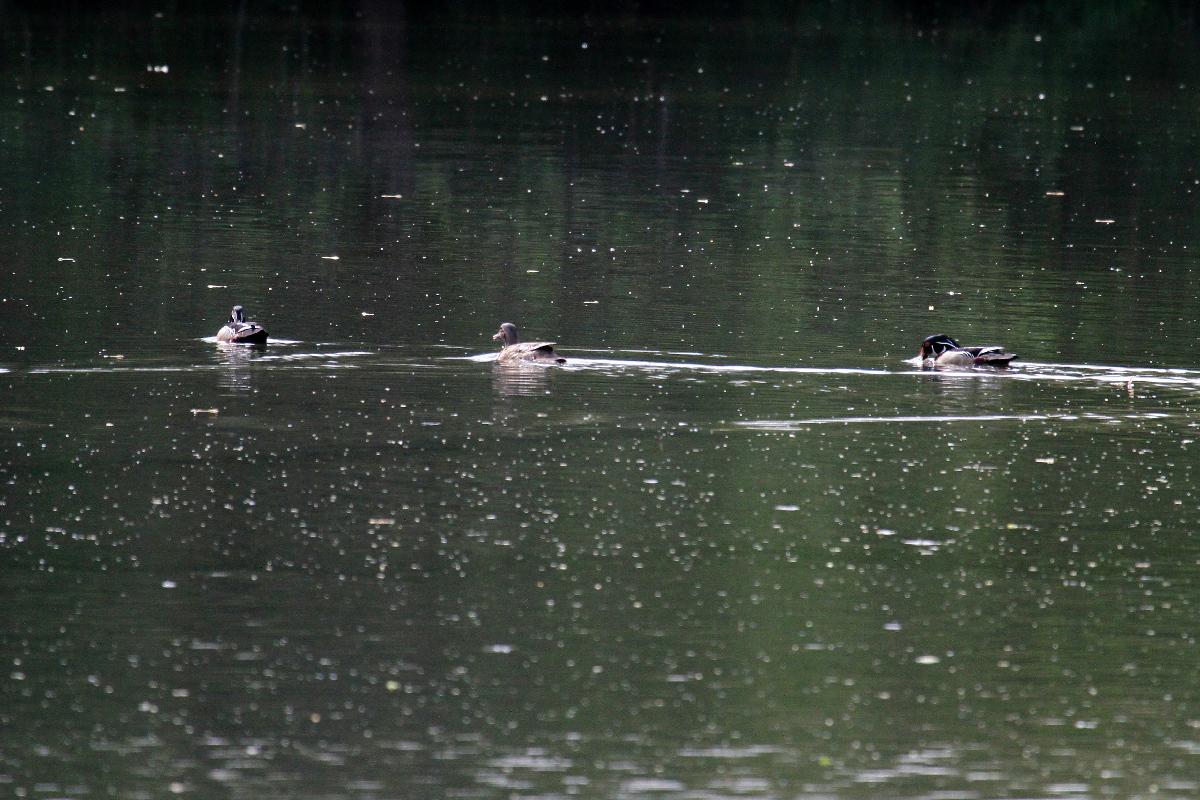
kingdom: Animalia
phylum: Chordata
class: Aves
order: Anseriformes
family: Anatidae
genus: Aix
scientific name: Aix sponsa
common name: Wood duck
